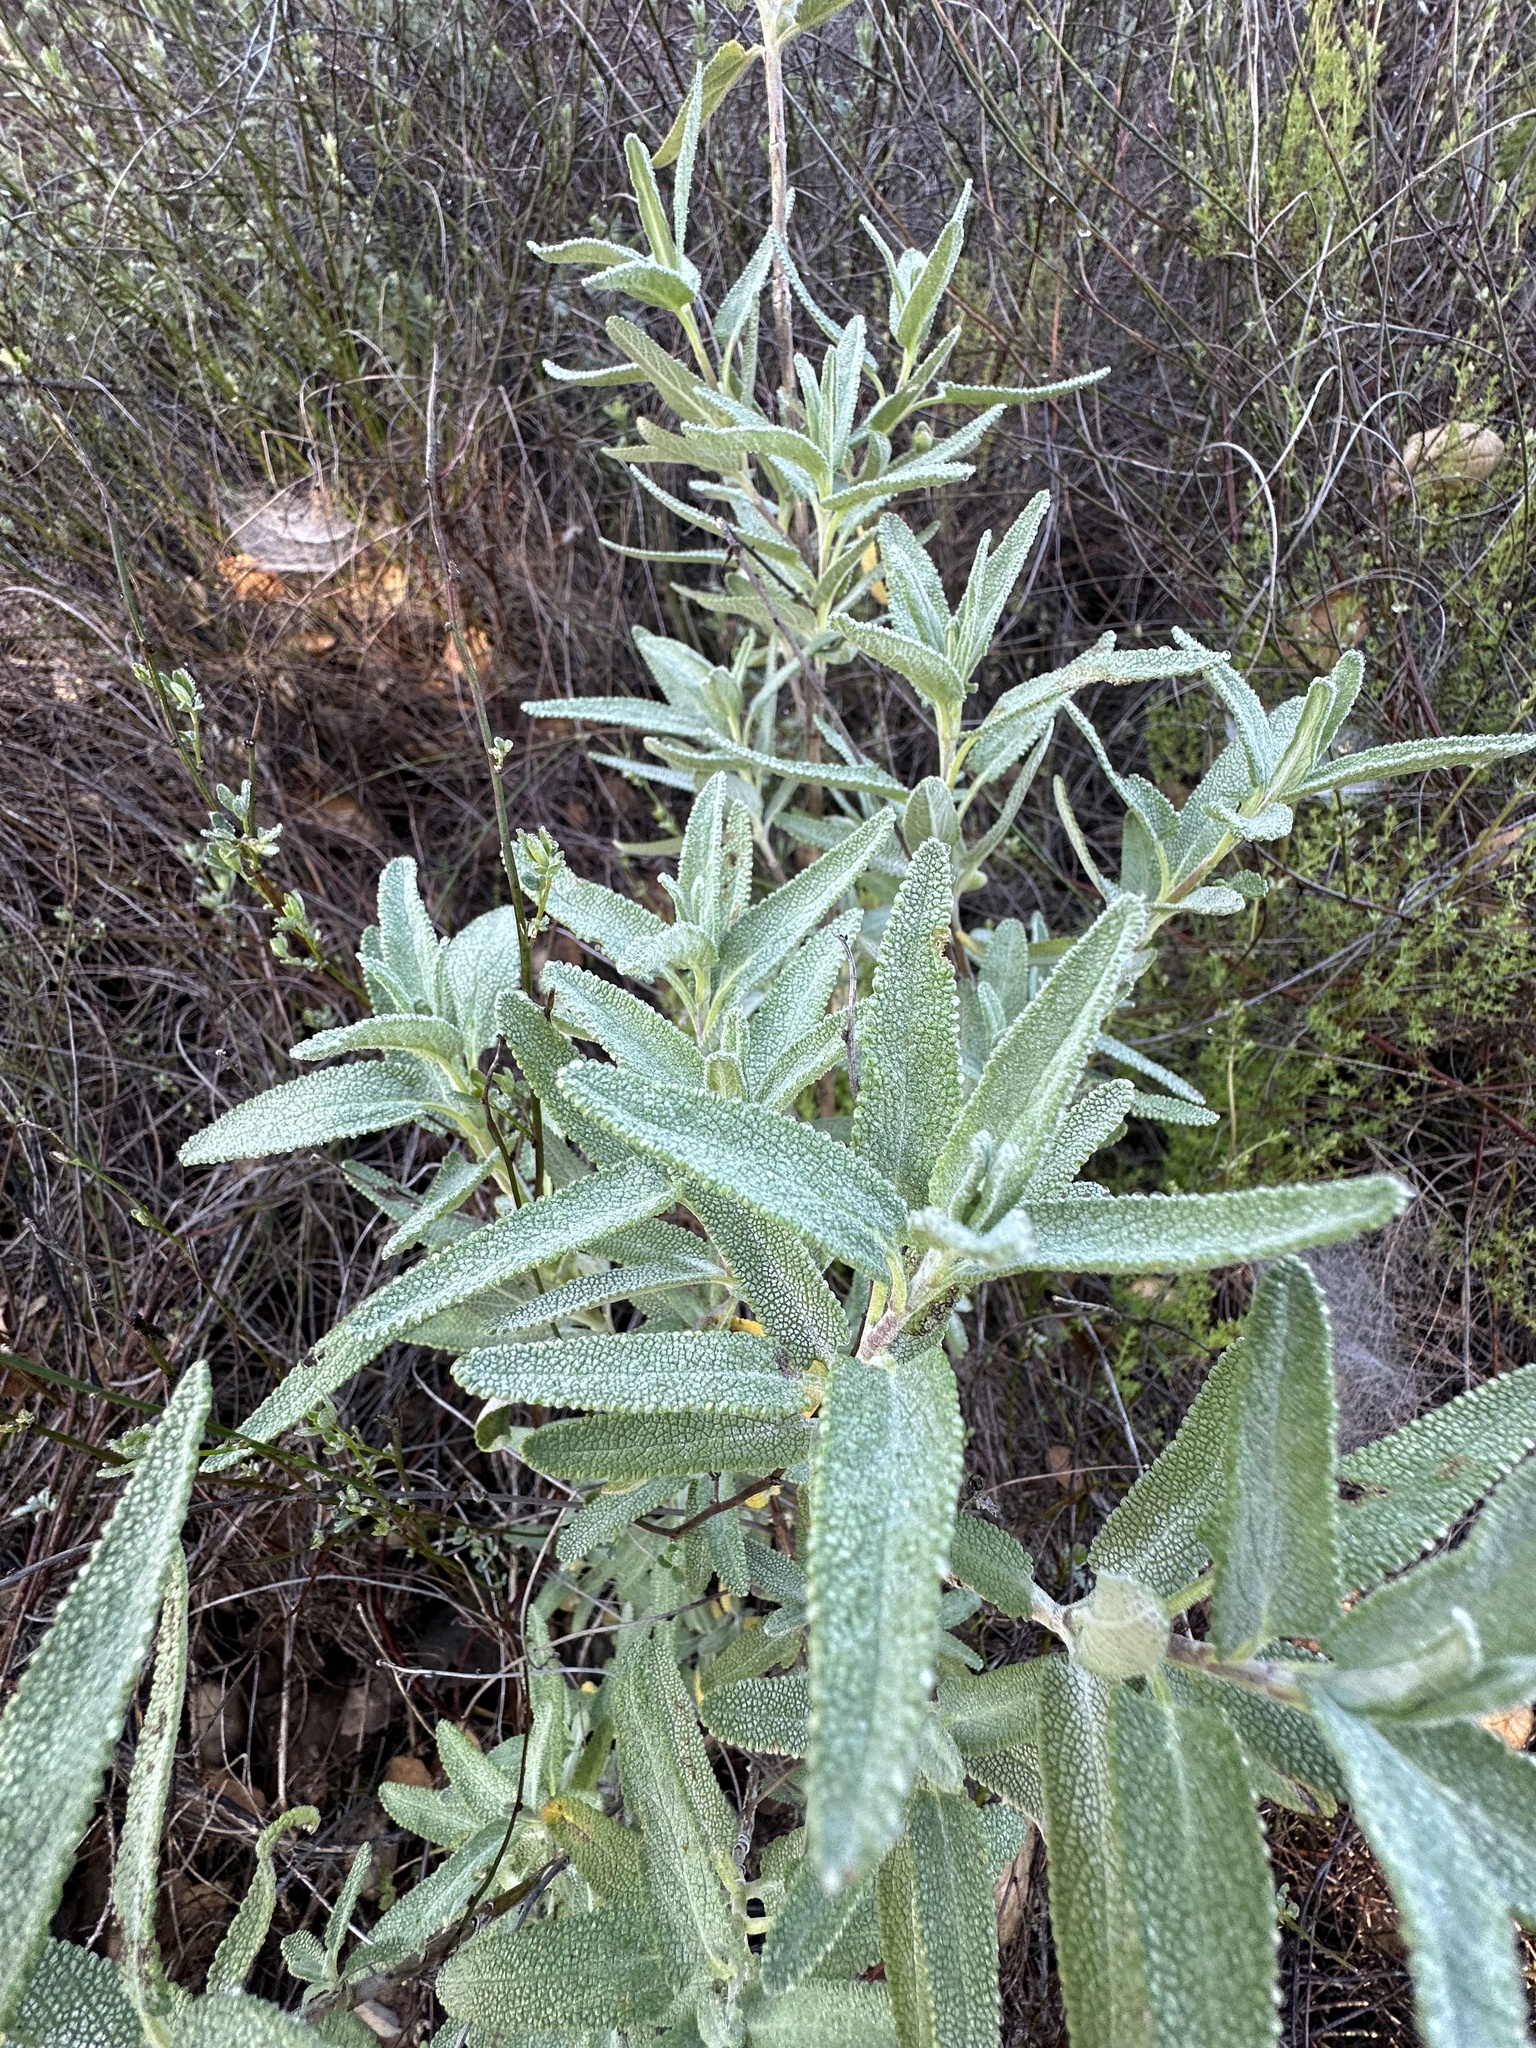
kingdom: Plantae
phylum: Tracheophyta
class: Magnoliopsida
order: Lamiales
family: Lamiaceae
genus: Salvia
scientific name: Salvia leucophylla
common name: Purple sage
